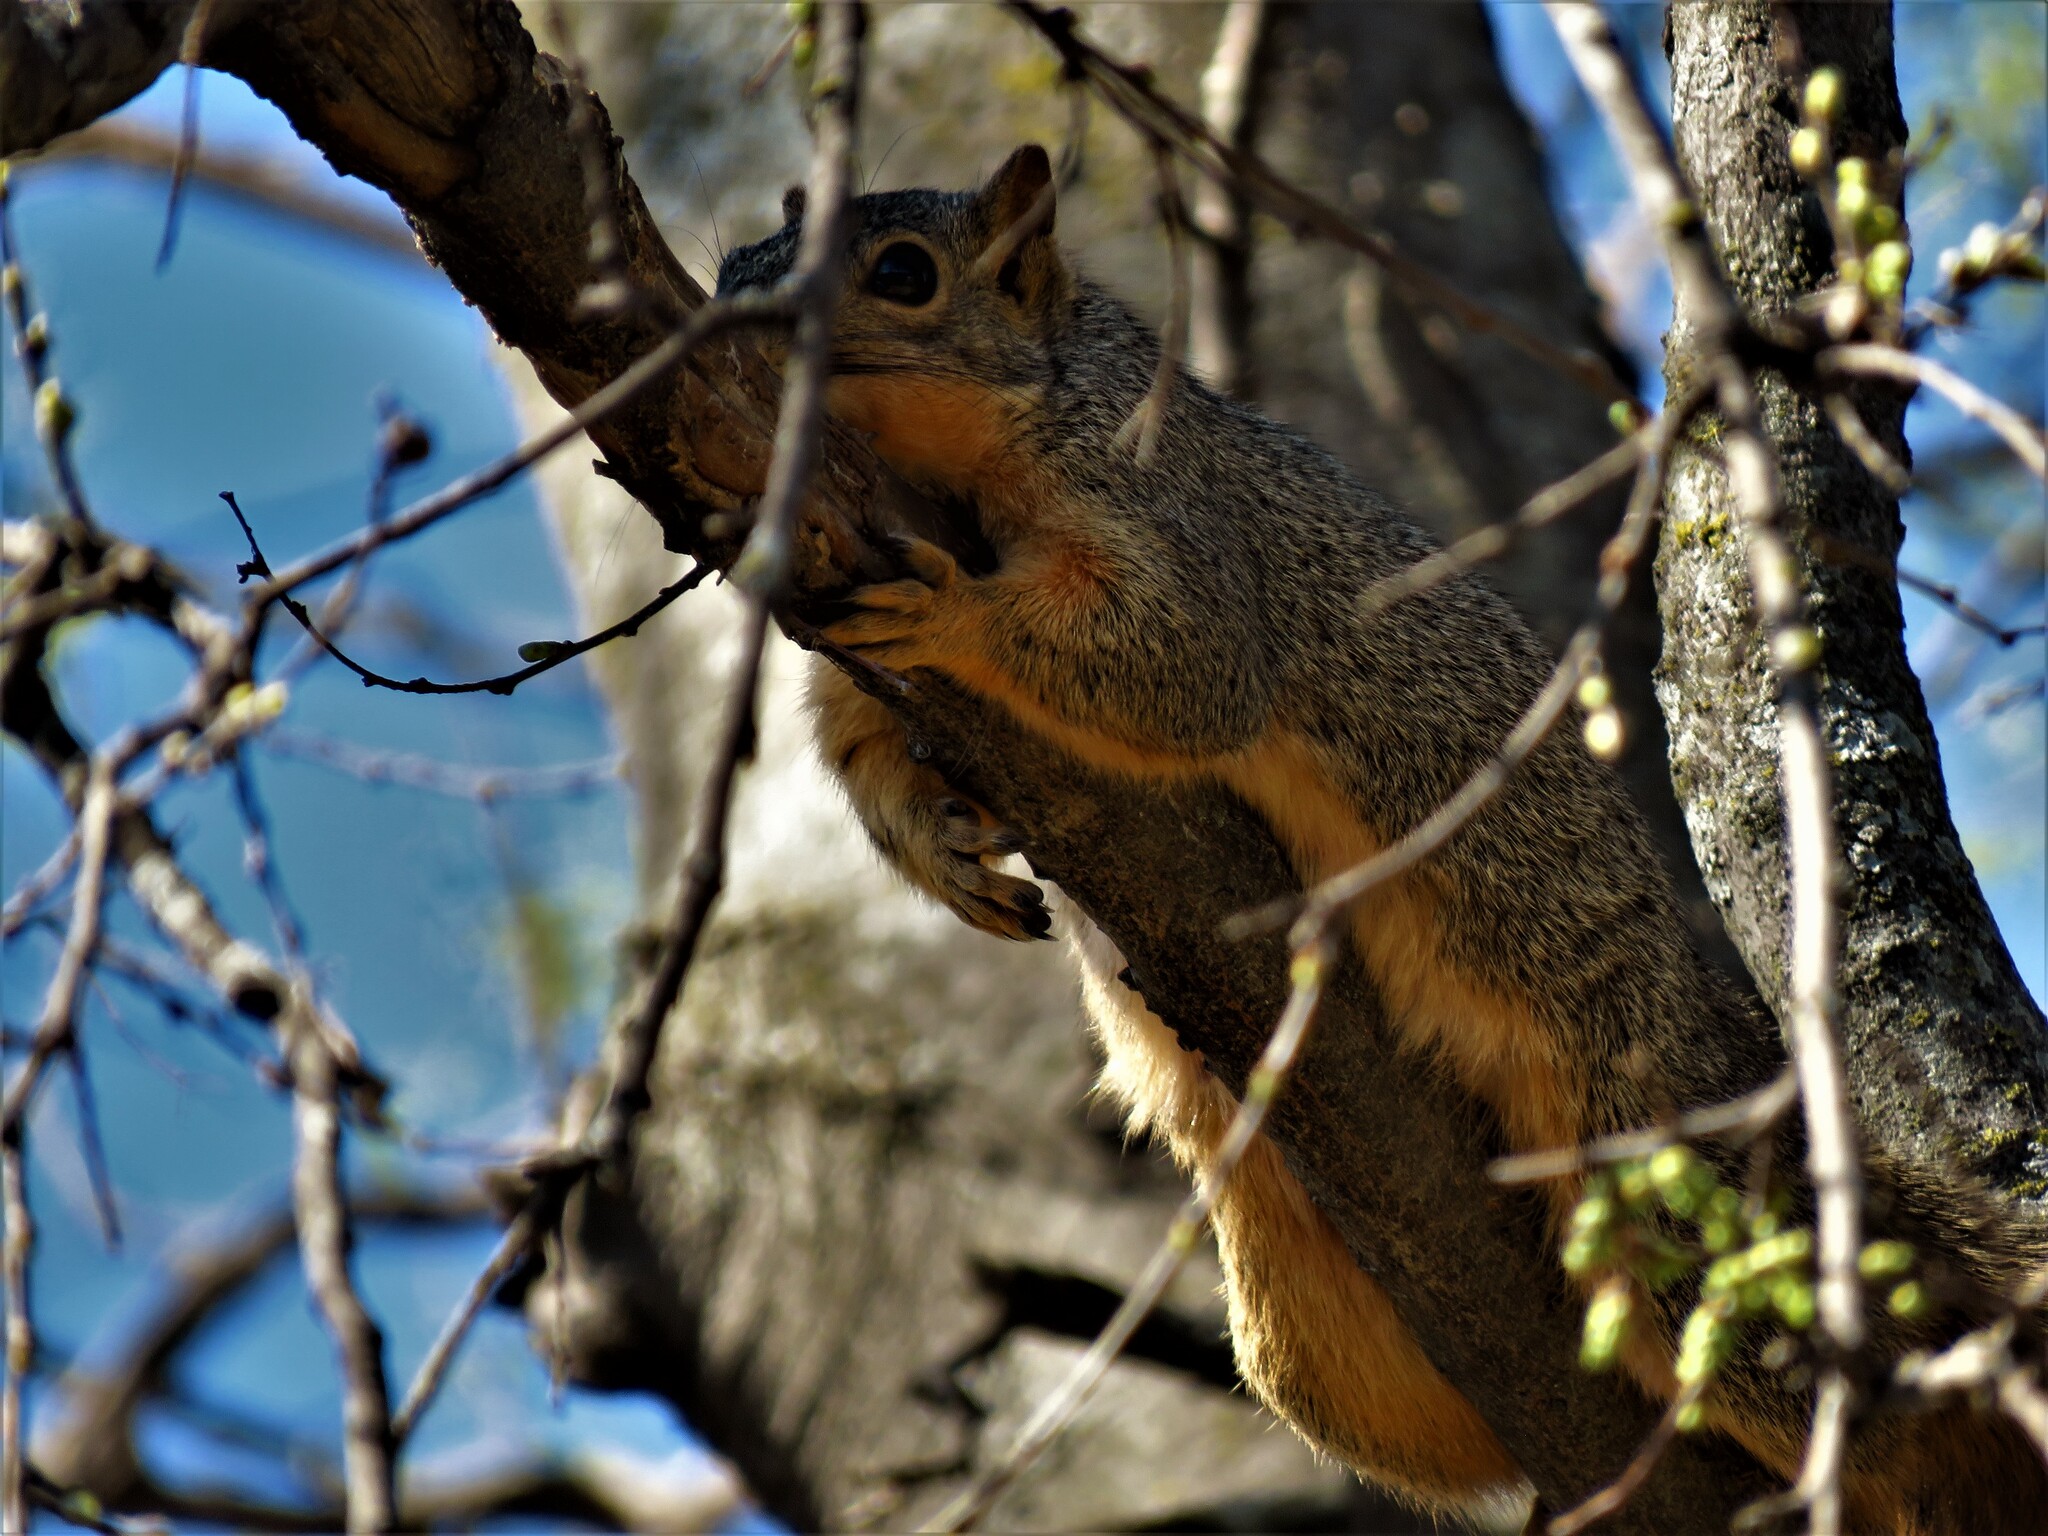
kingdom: Animalia
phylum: Chordata
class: Mammalia
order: Rodentia
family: Sciuridae
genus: Sciurus
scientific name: Sciurus niger
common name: Fox squirrel
